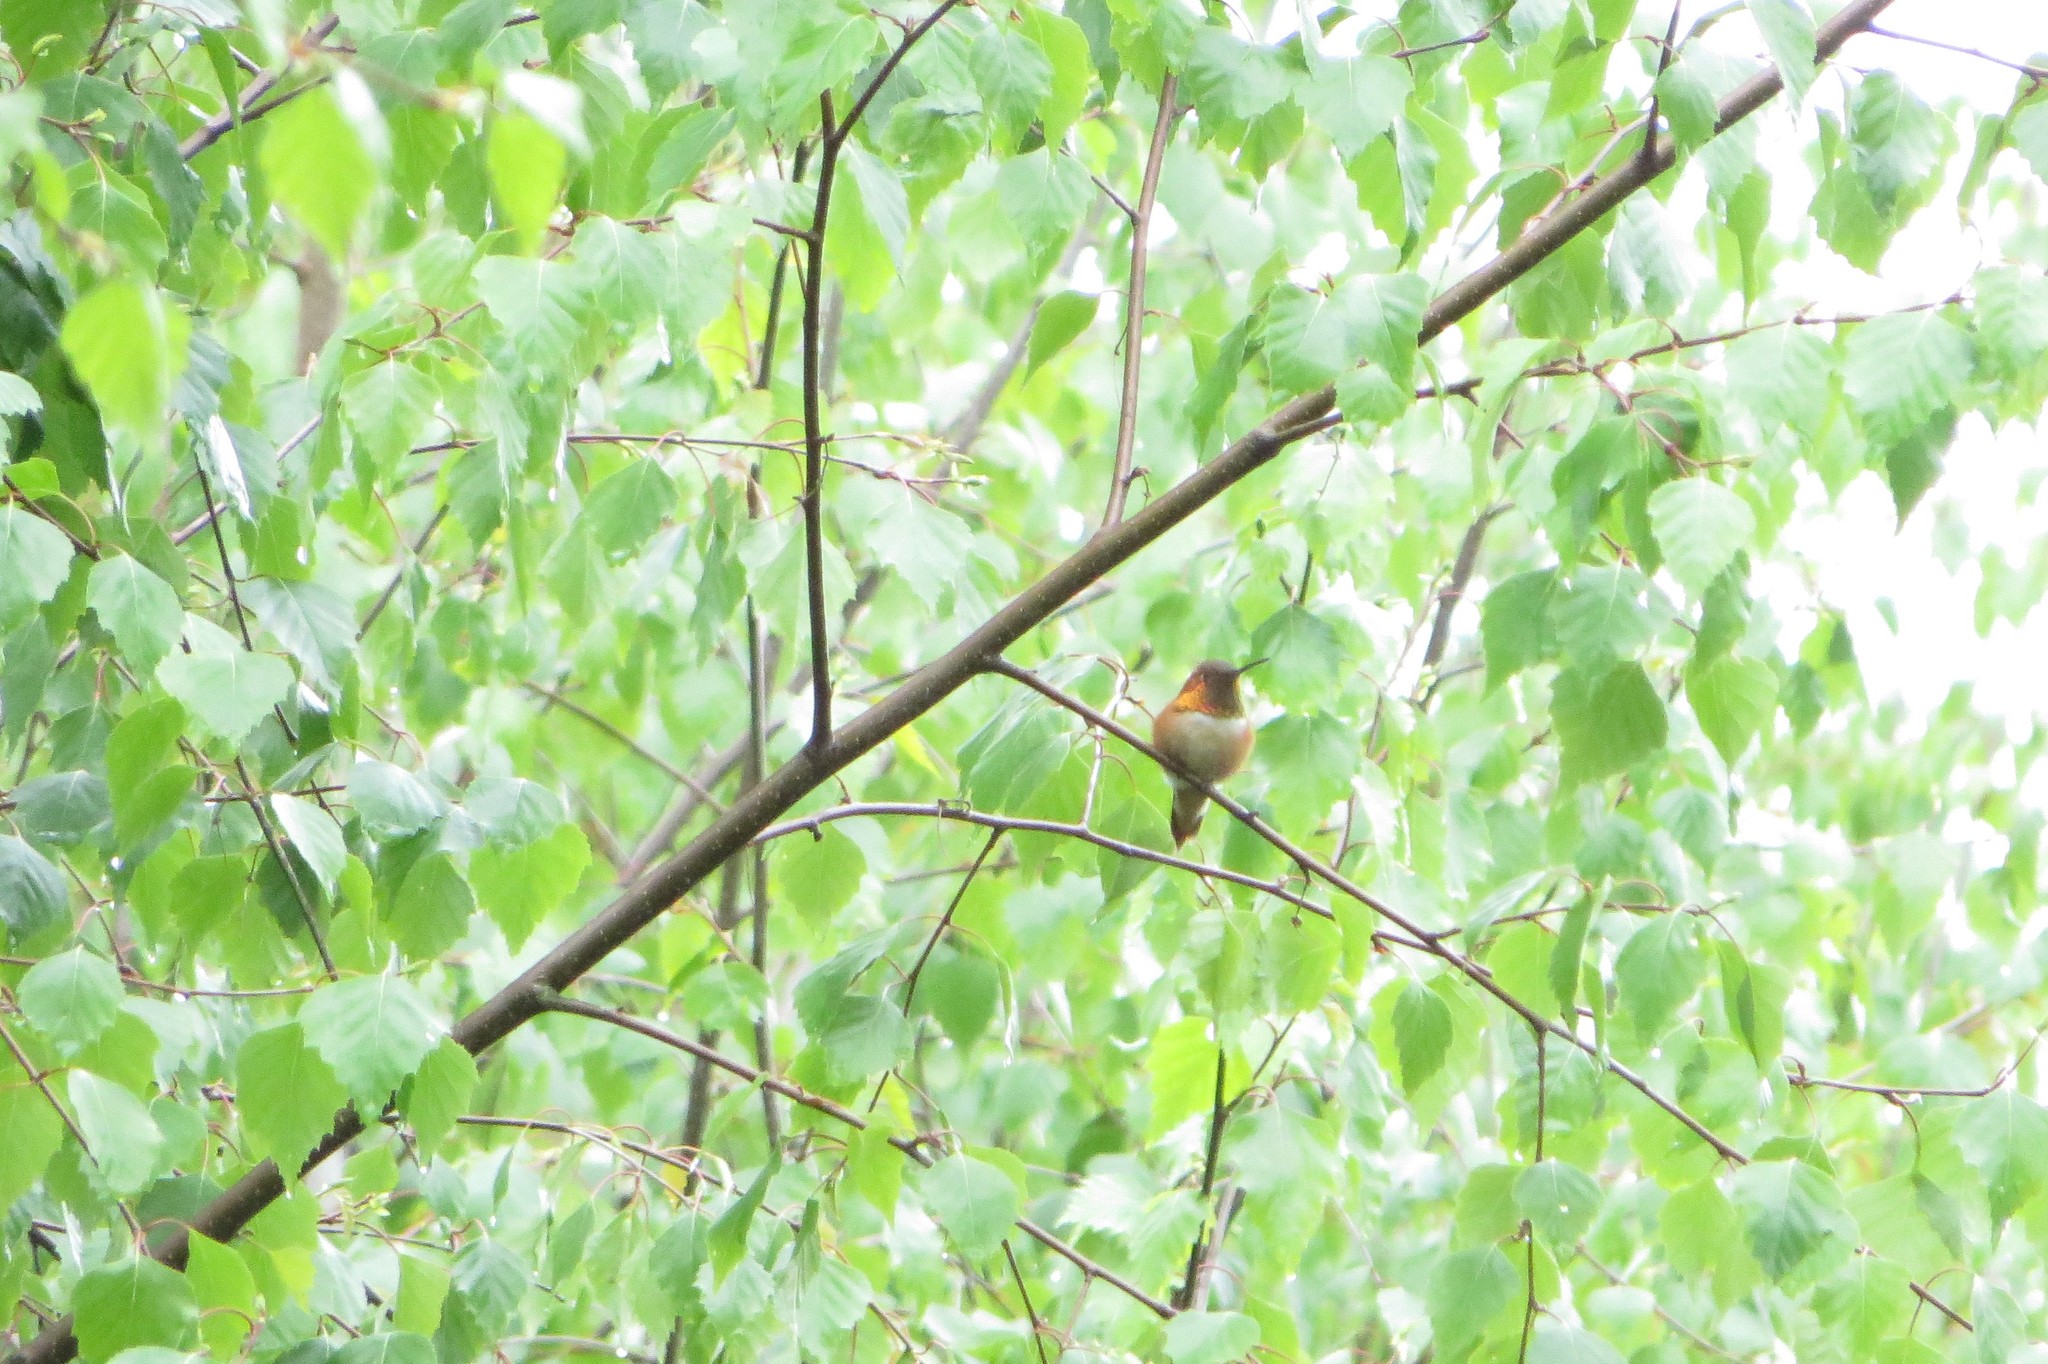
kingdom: Animalia
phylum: Chordata
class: Aves
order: Apodiformes
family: Trochilidae
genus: Selasphorus
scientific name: Selasphorus rufus
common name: Rufous hummingbird
